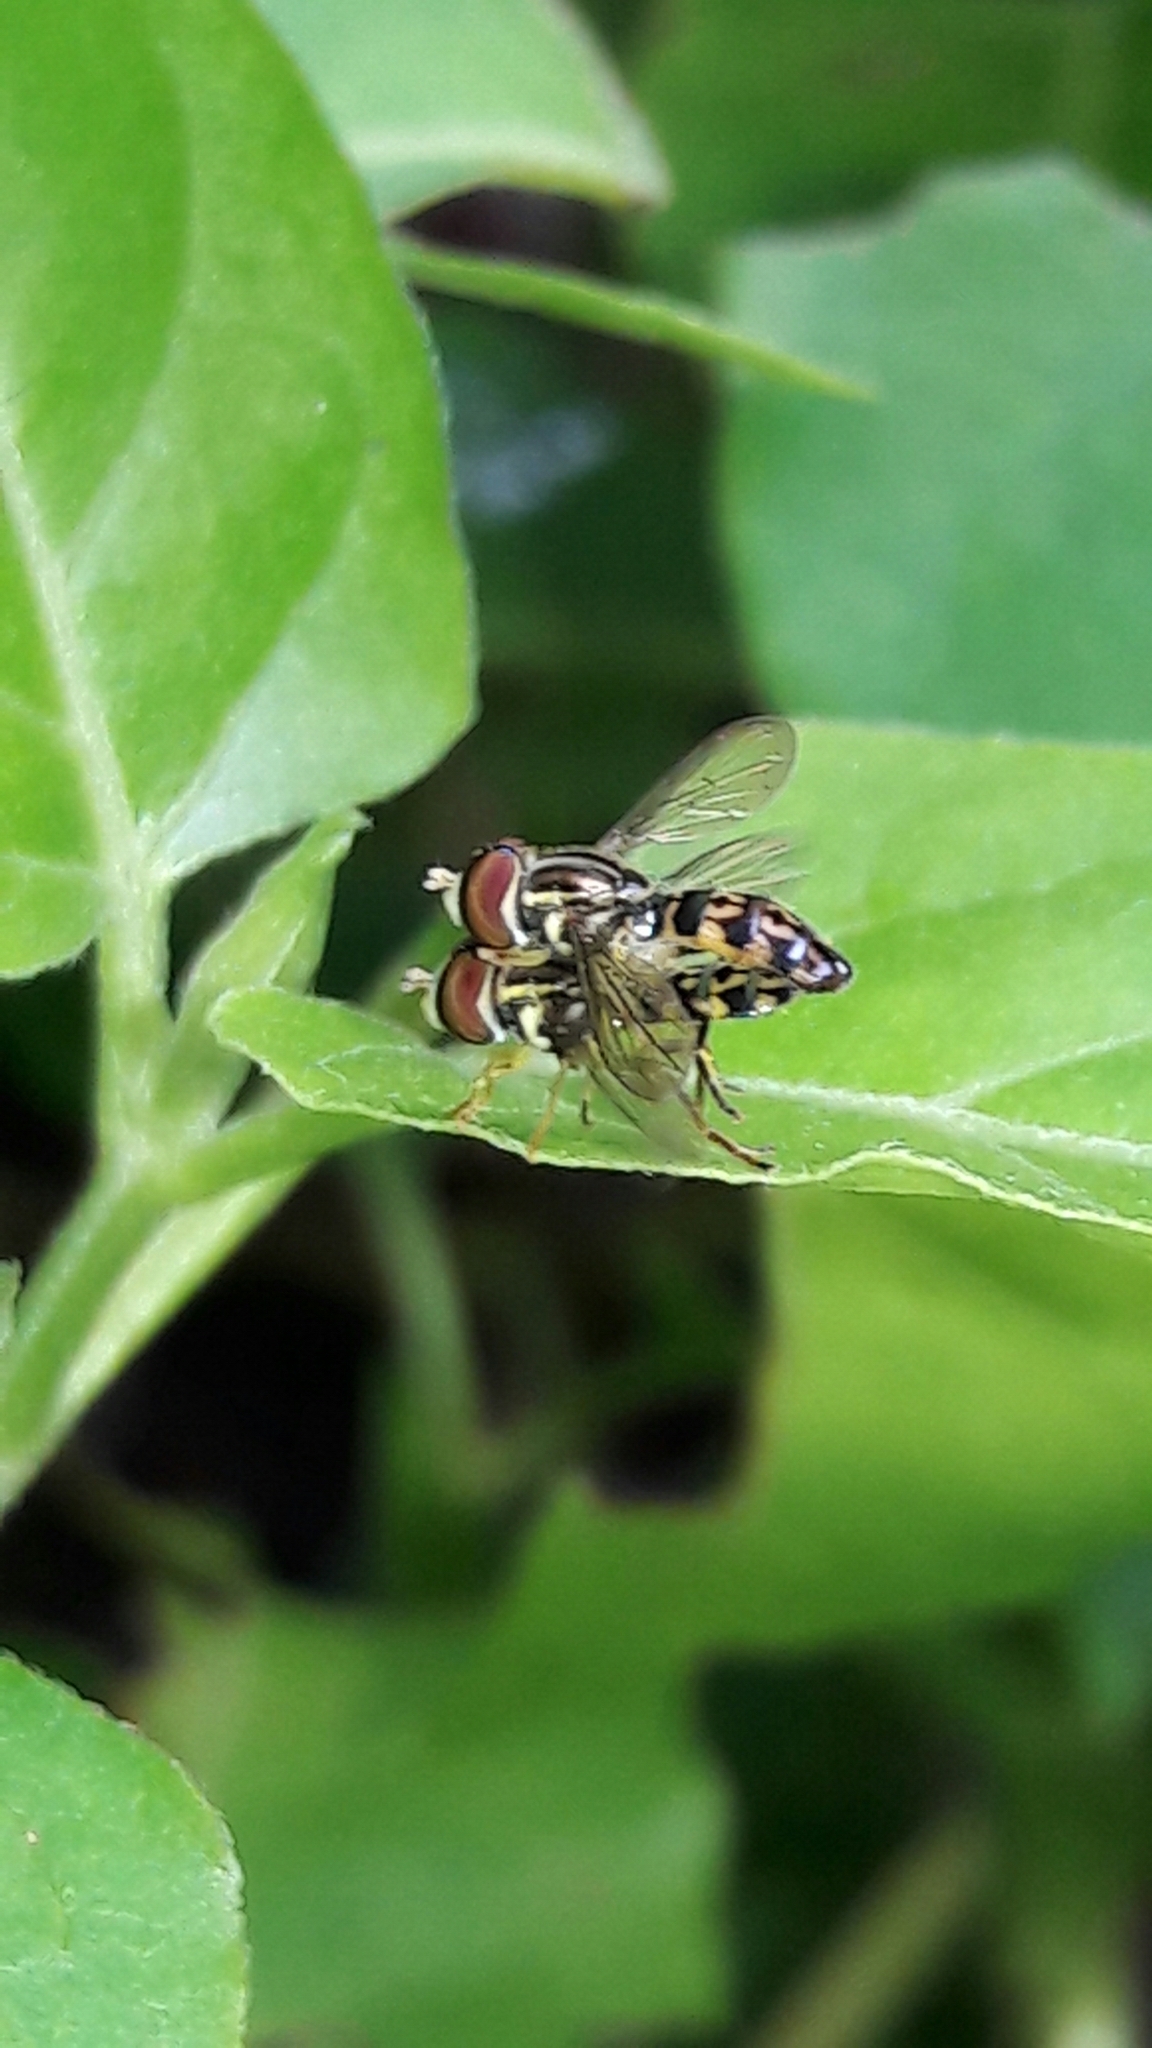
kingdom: Animalia
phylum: Arthropoda
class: Insecta
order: Diptera
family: Syrphidae
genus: Toxomerus
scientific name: Toxomerus virgulatus
